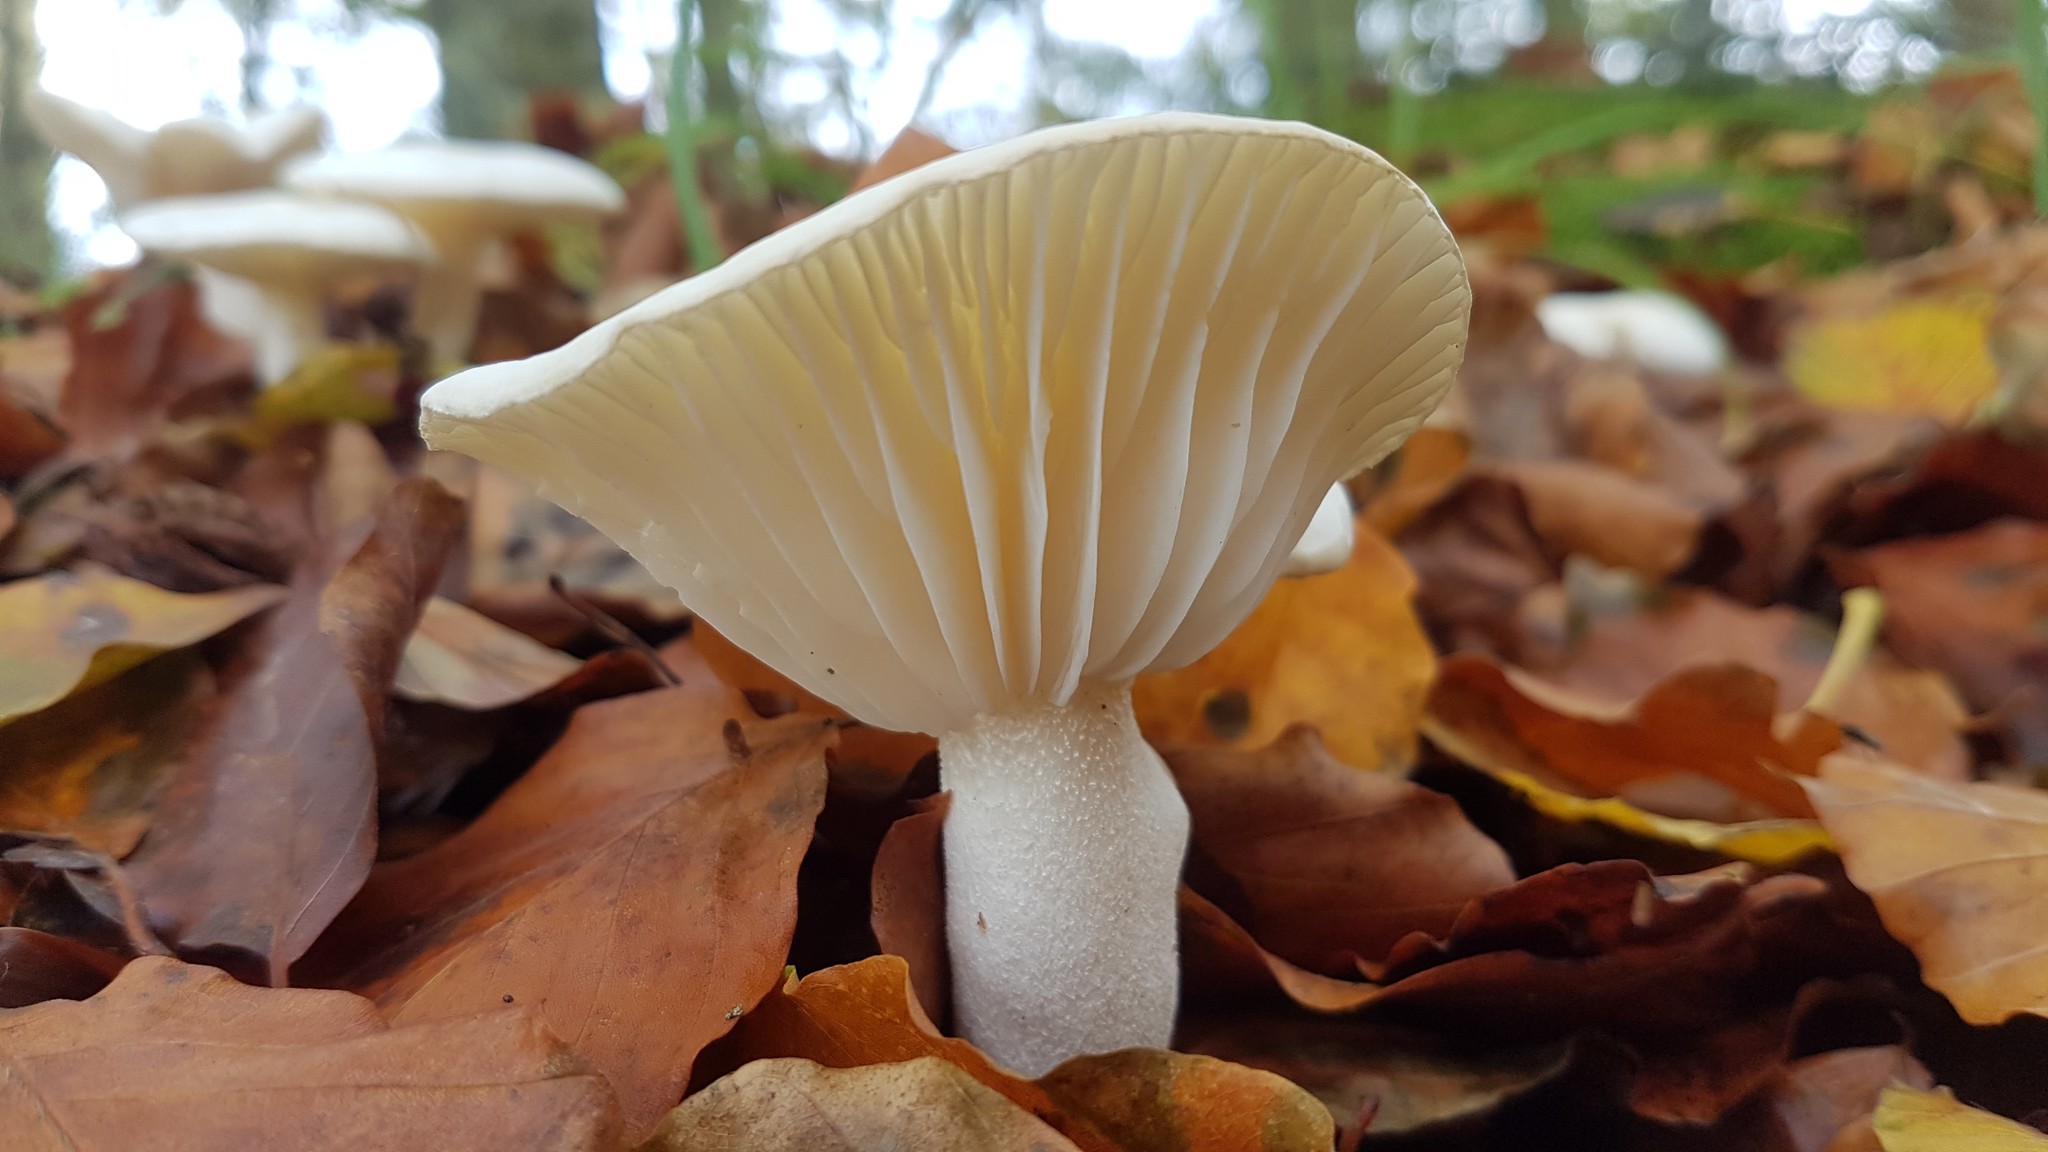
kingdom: Fungi
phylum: Basidiomycota
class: Agaricomycetes
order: Agaricales
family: Hygrophoraceae
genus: Hygrophorus
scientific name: Hygrophorus eburneus
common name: Ivory wax-cap
